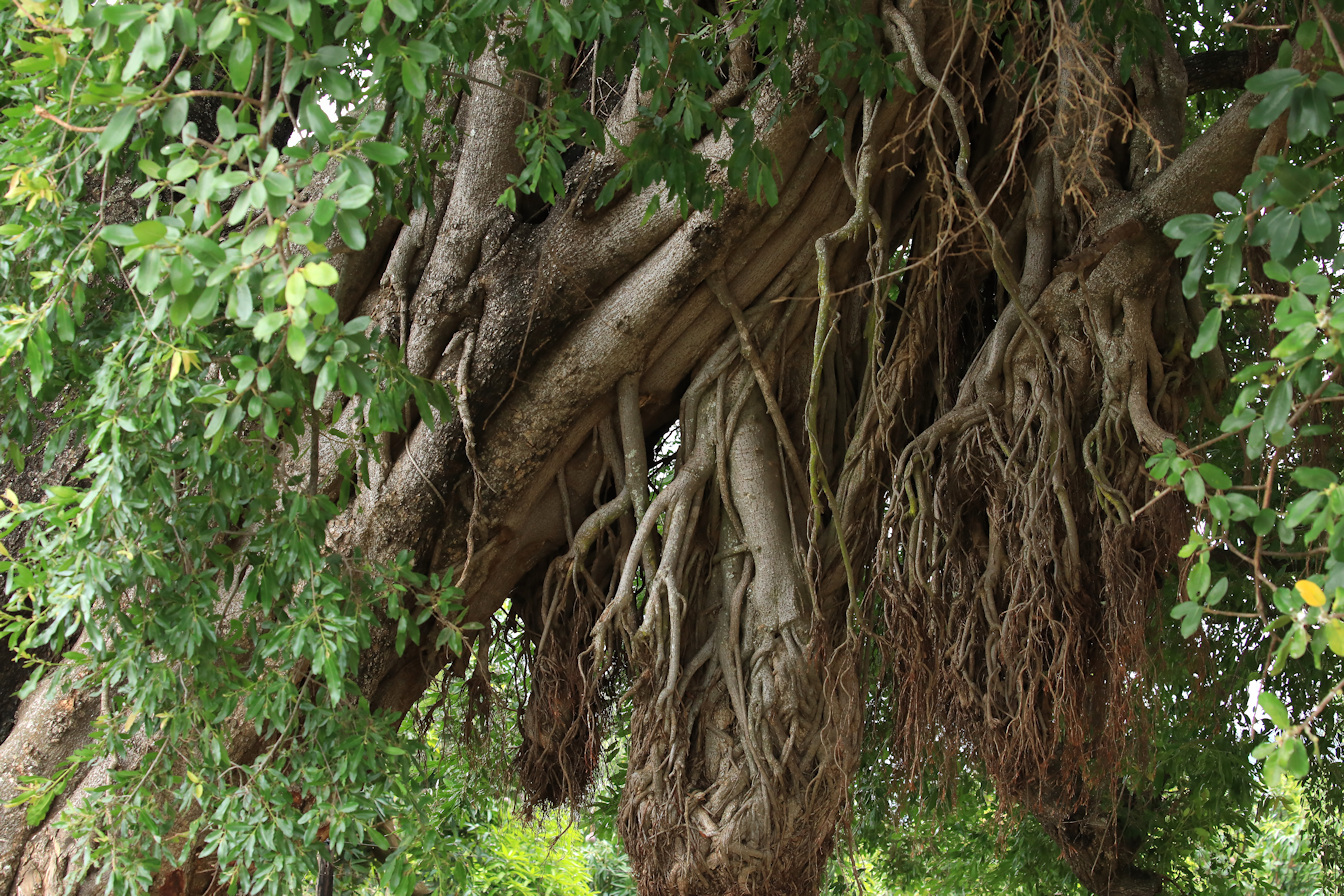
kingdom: Plantae
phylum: Tracheophyta
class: Magnoliopsida
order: Rosales
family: Moraceae
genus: Ficus
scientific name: Ficus stuhlmannii
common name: Lowveld fig
